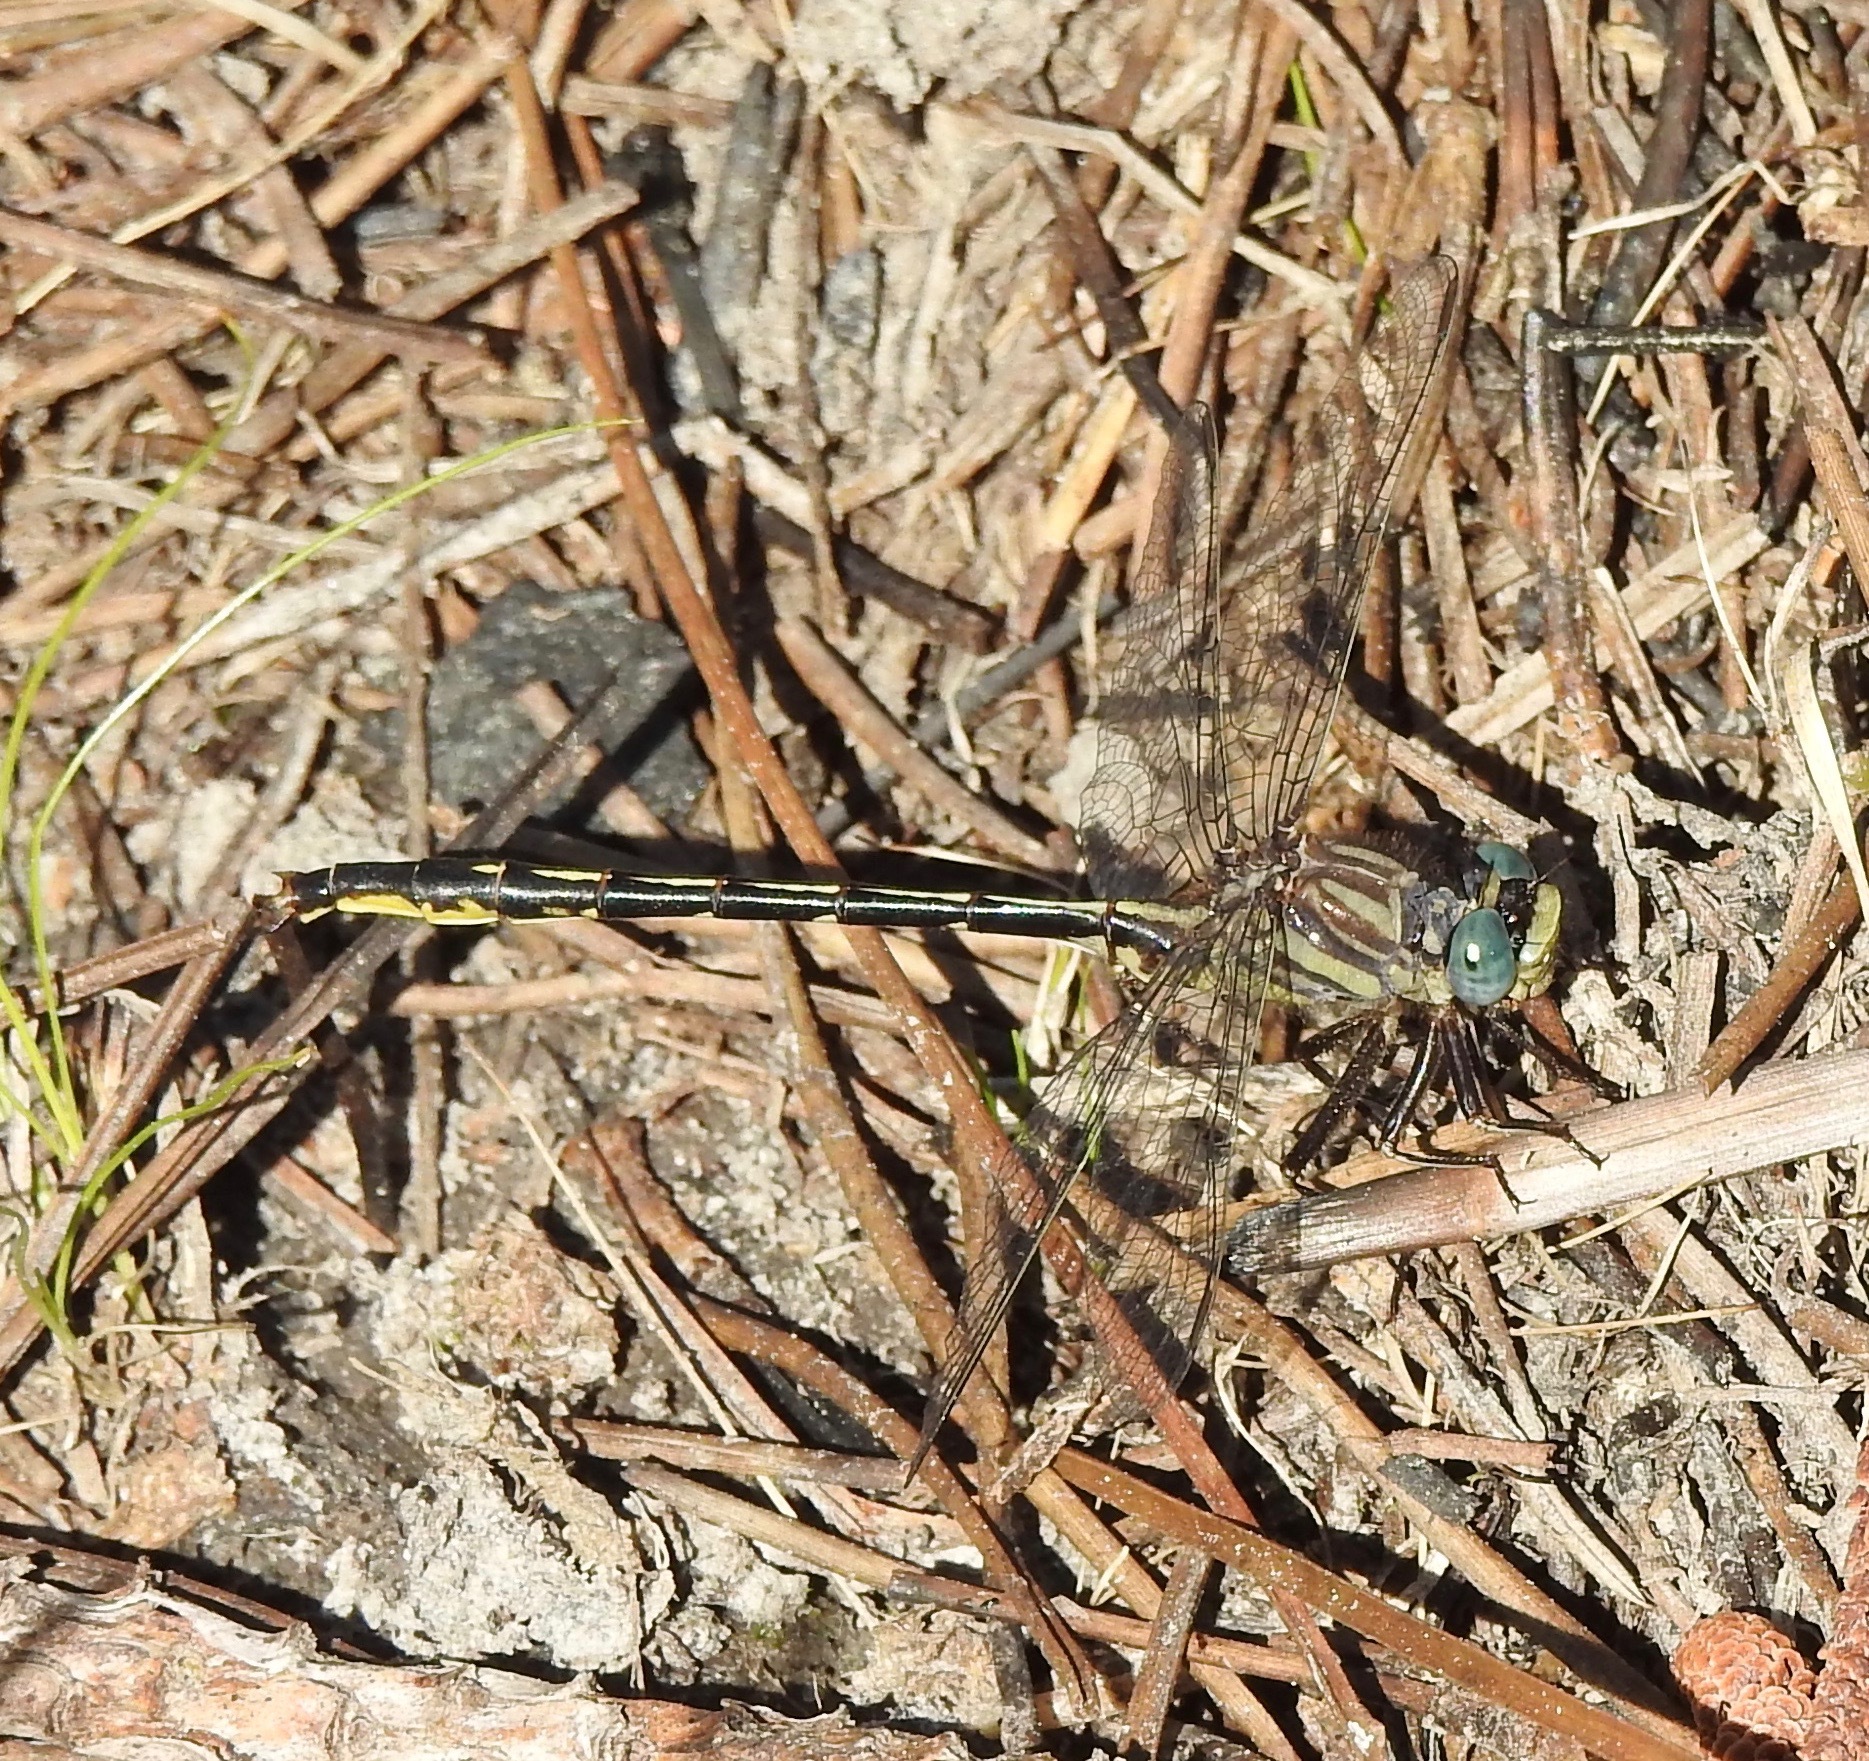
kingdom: Animalia
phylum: Arthropoda
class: Insecta
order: Odonata
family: Gomphidae
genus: Phanogomphus
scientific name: Phanogomphus westfalli
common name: Westfall’s clubtail
